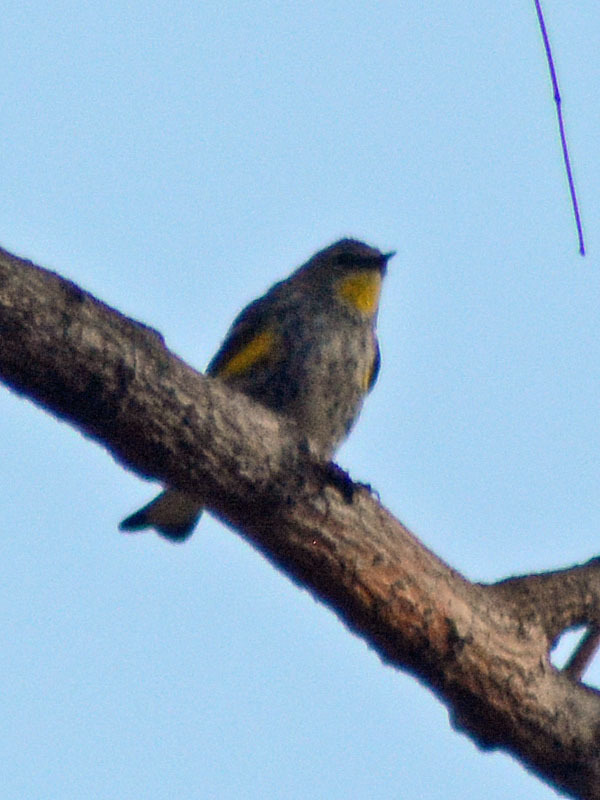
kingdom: Animalia
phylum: Chordata
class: Aves
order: Passeriformes
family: Parulidae
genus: Setophaga
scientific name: Setophaga auduboni
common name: Audubon's warbler
